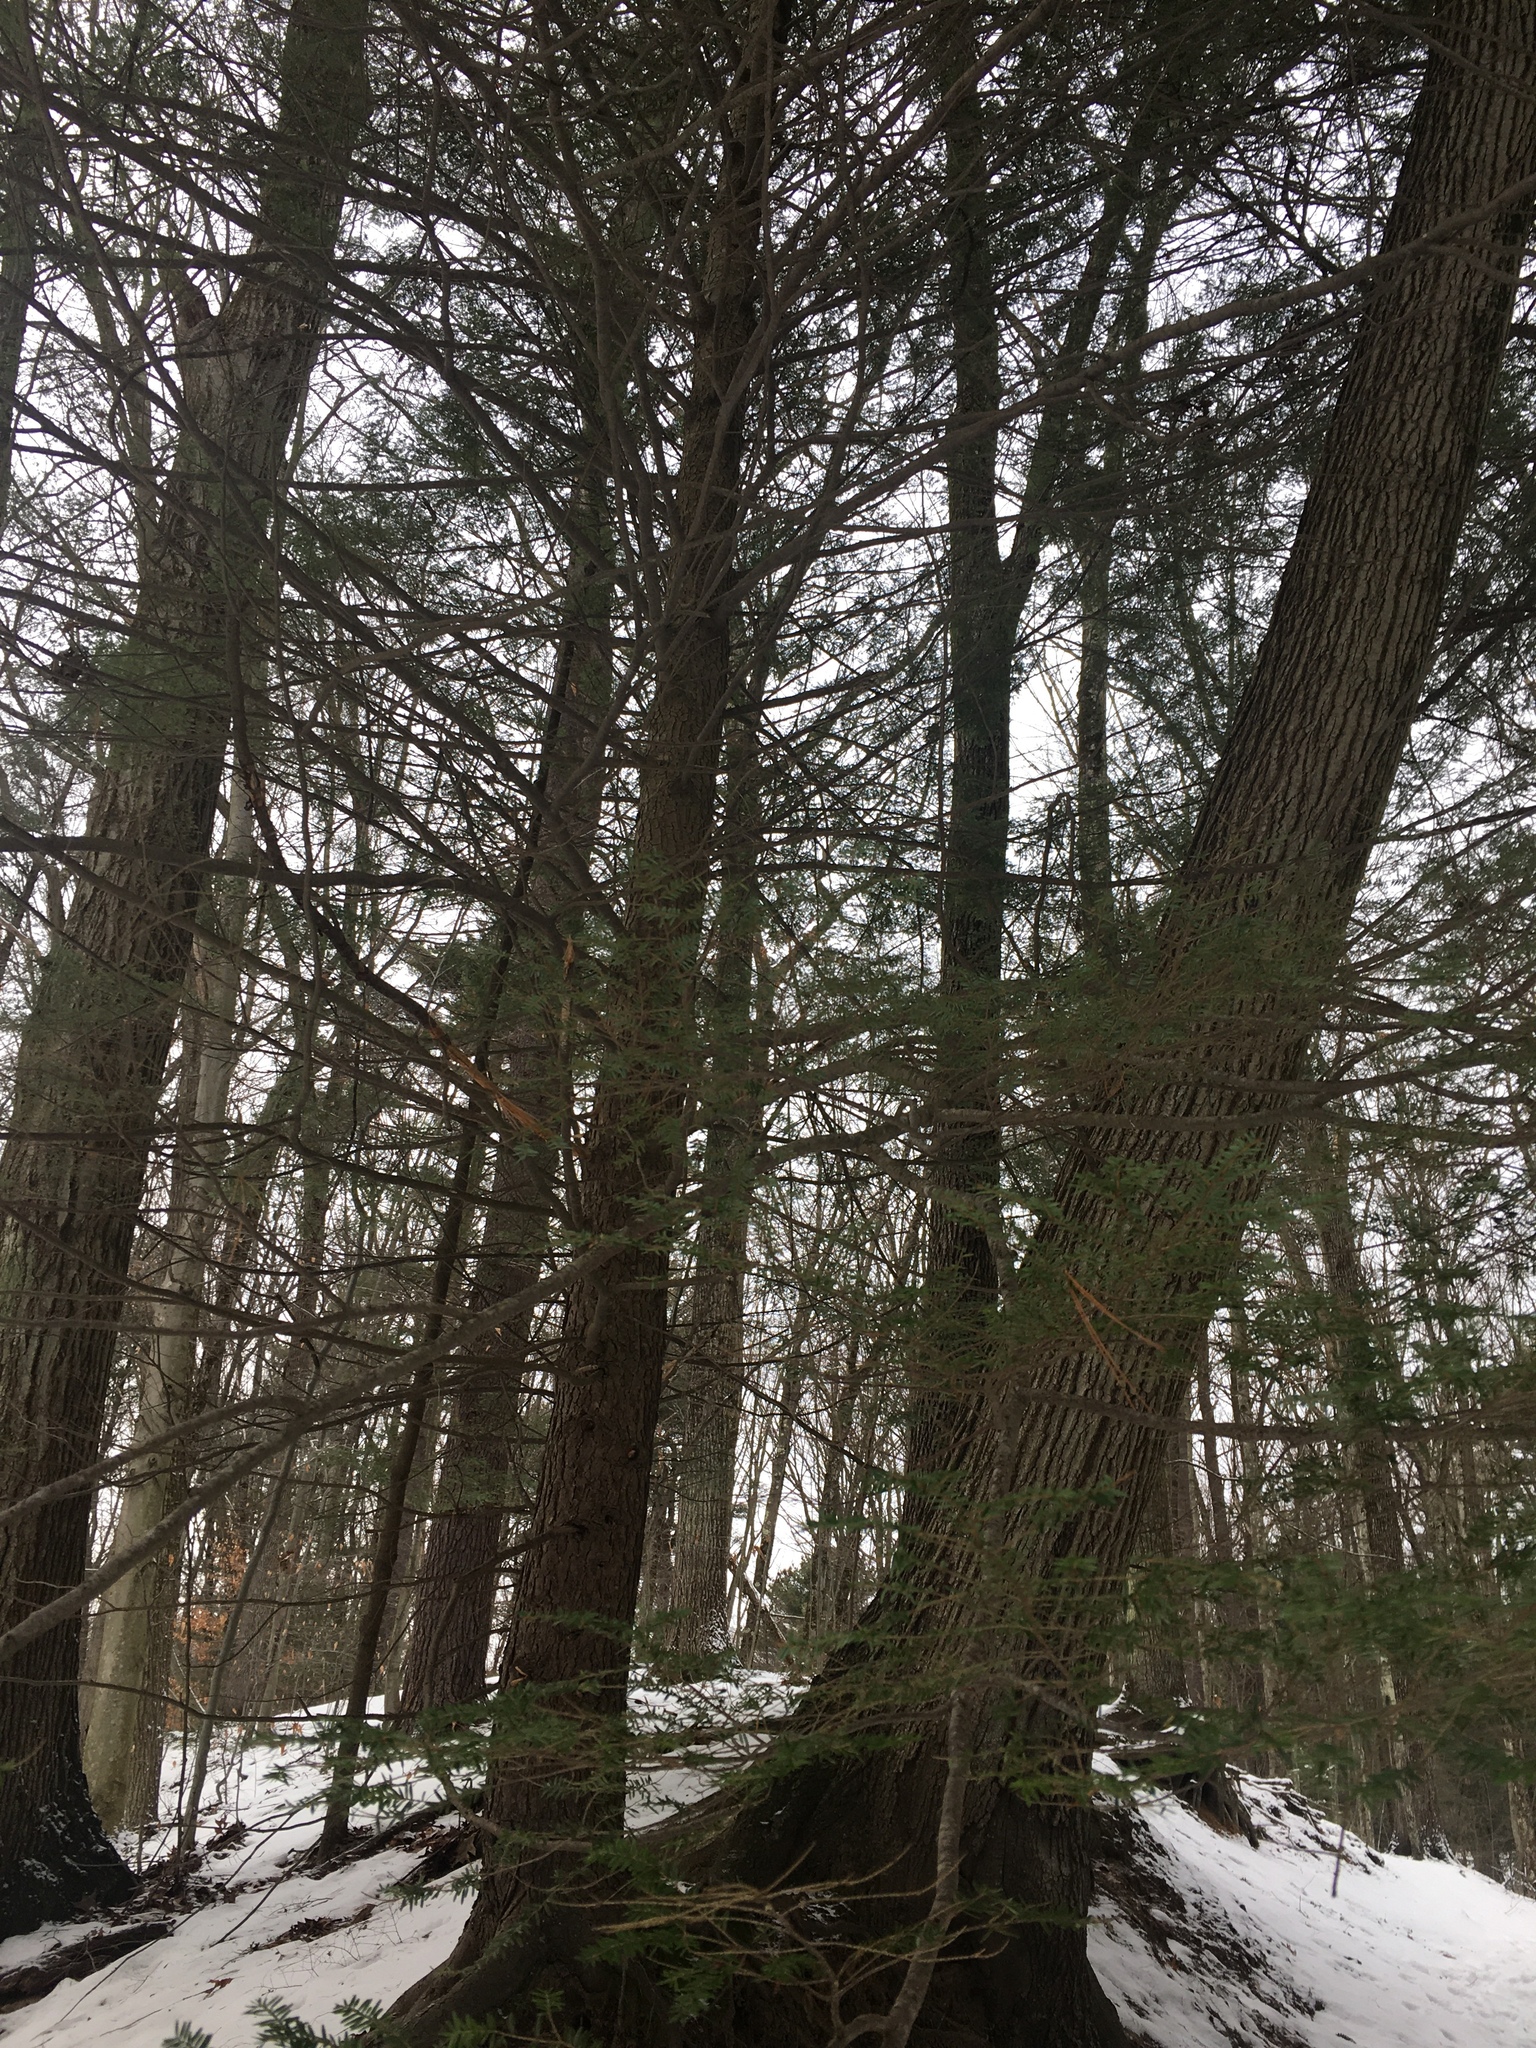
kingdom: Plantae
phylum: Tracheophyta
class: Pinopsida
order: Pinales
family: Pinaceae
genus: Tsuga
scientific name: Tsuga canadensis
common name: Eastern hemlock
